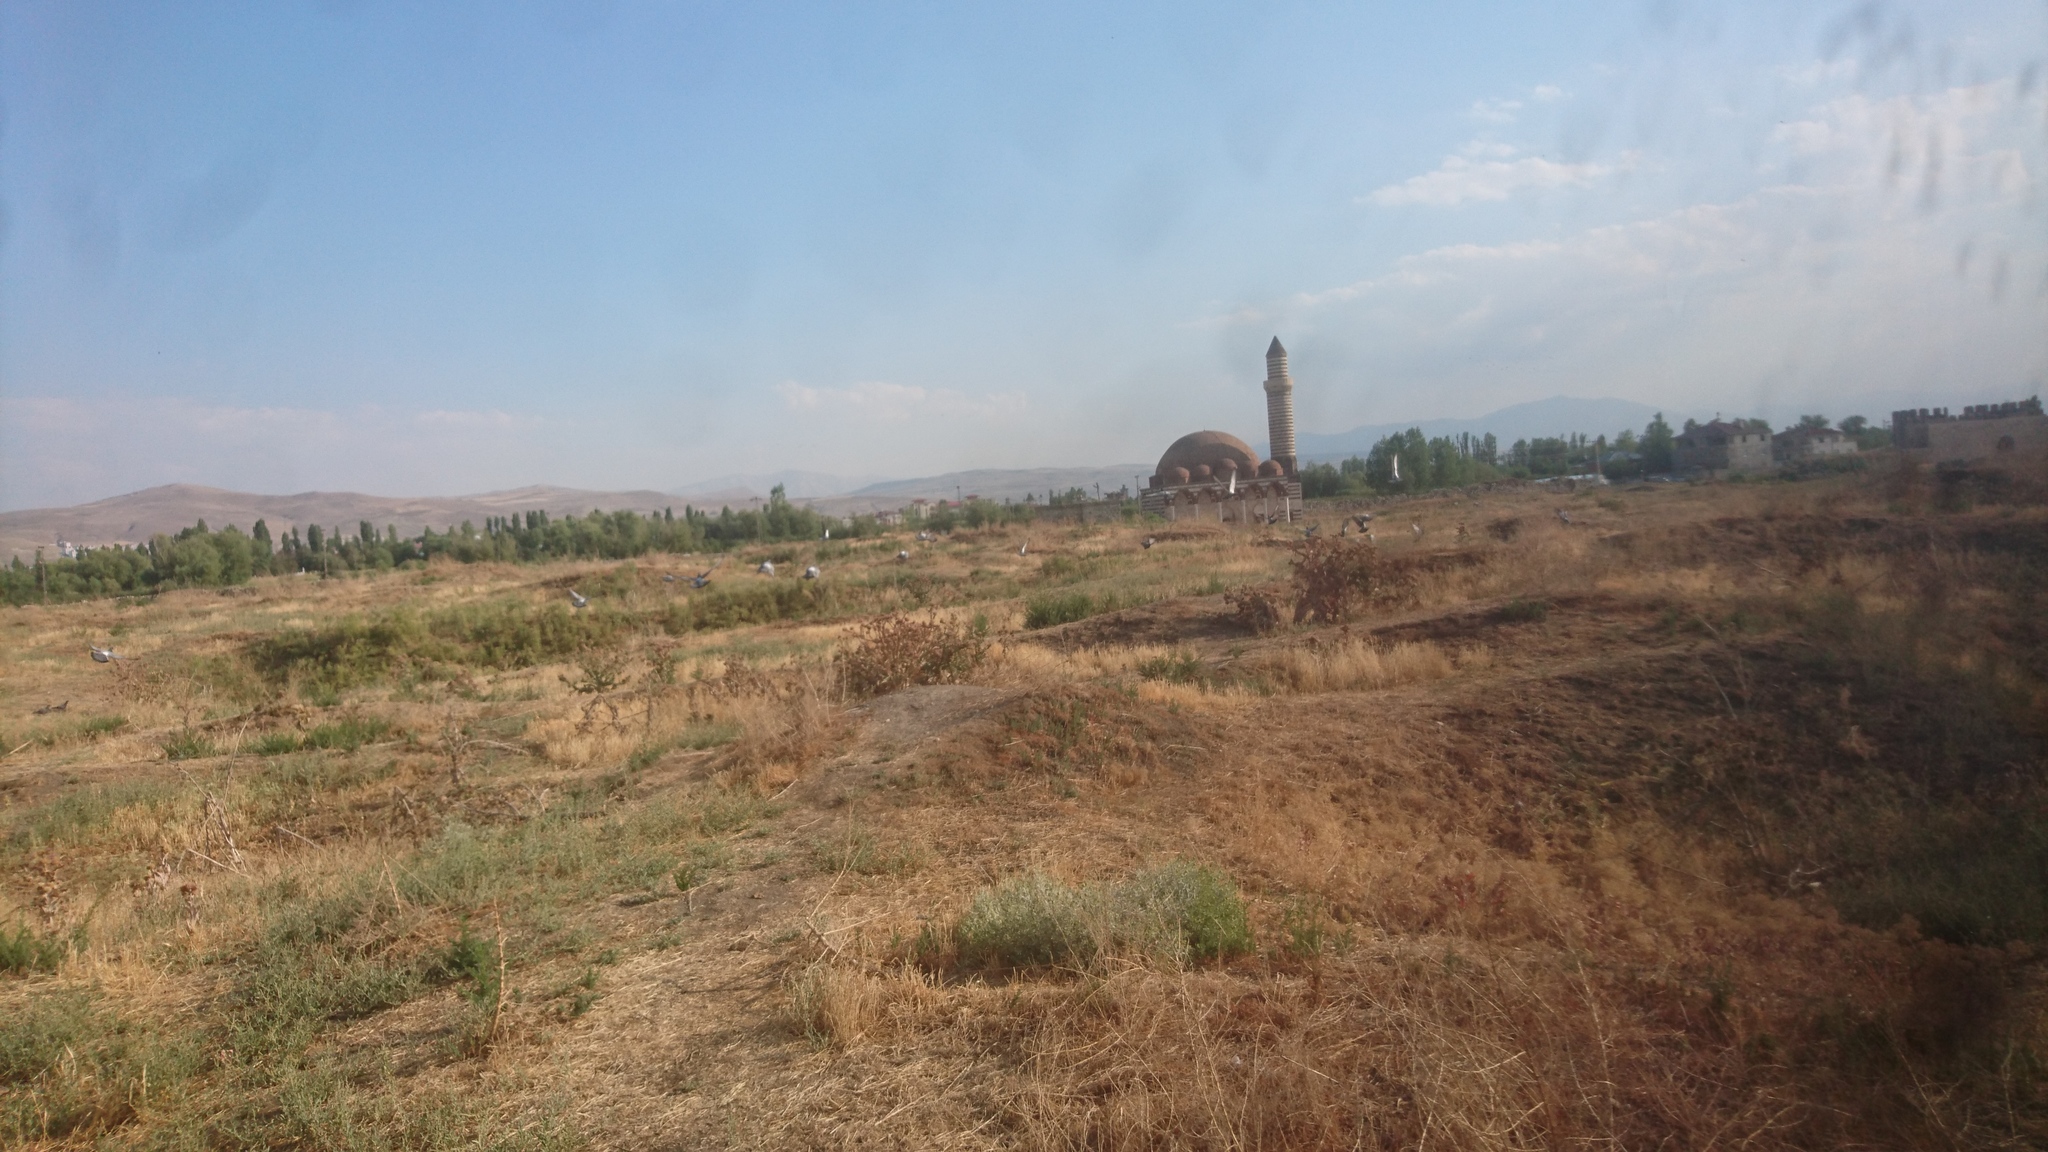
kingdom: Animalia
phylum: Chordata
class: Aves
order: Columbiformes
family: Columbidae
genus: Columba
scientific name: Columba livia
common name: Rock pigeon
